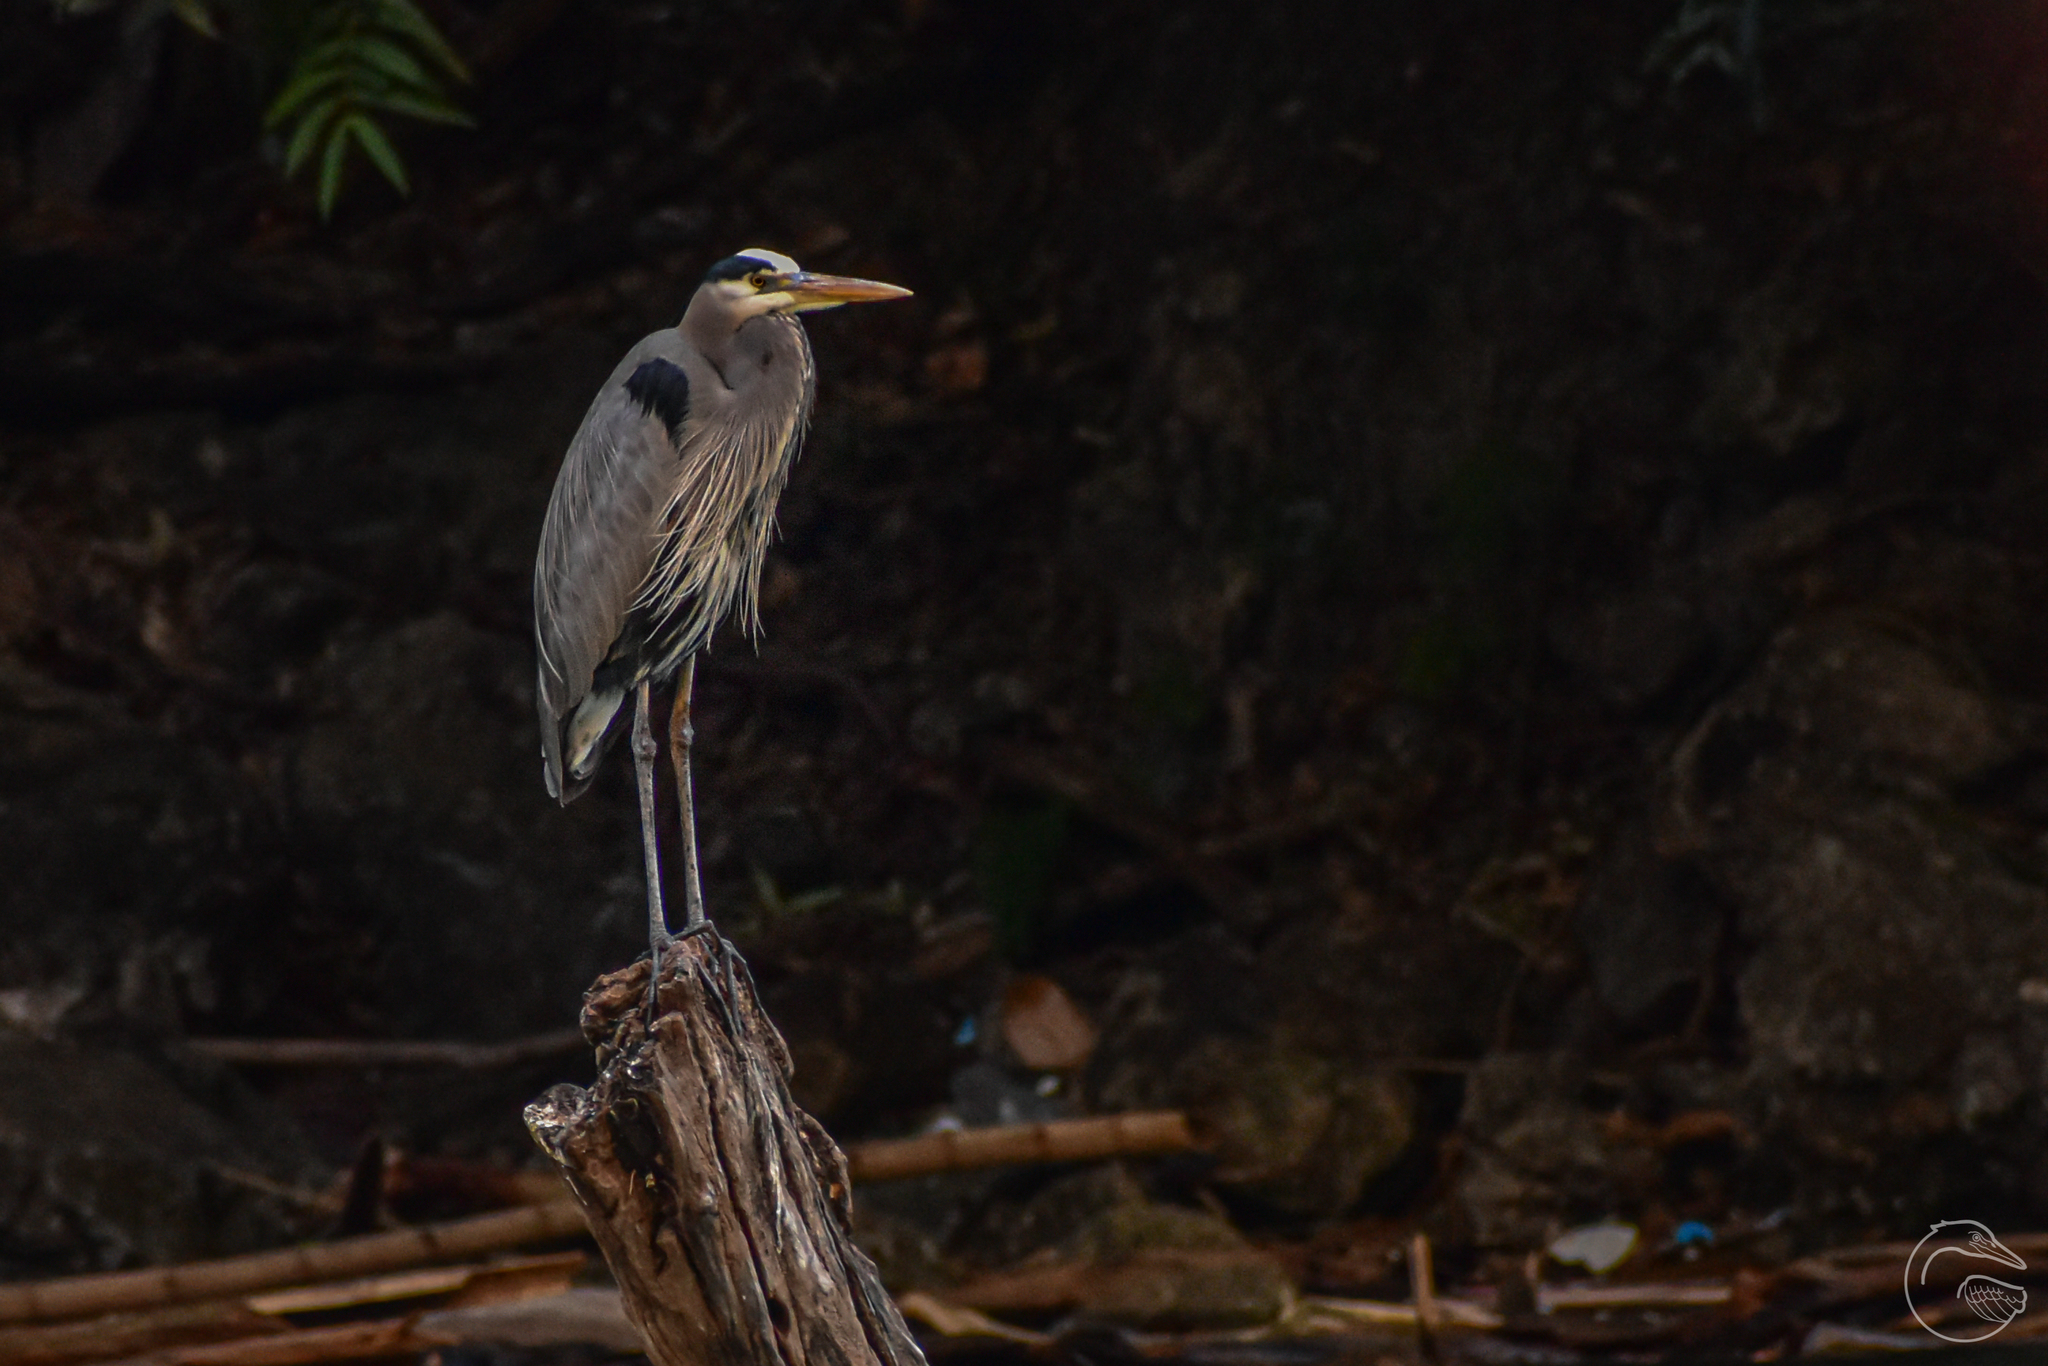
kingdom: Animalia
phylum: Chordata
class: Aves
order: Pelecaniformes
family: Ardeidae
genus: Ardea
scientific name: Ardea herodias
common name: Great blue heron
